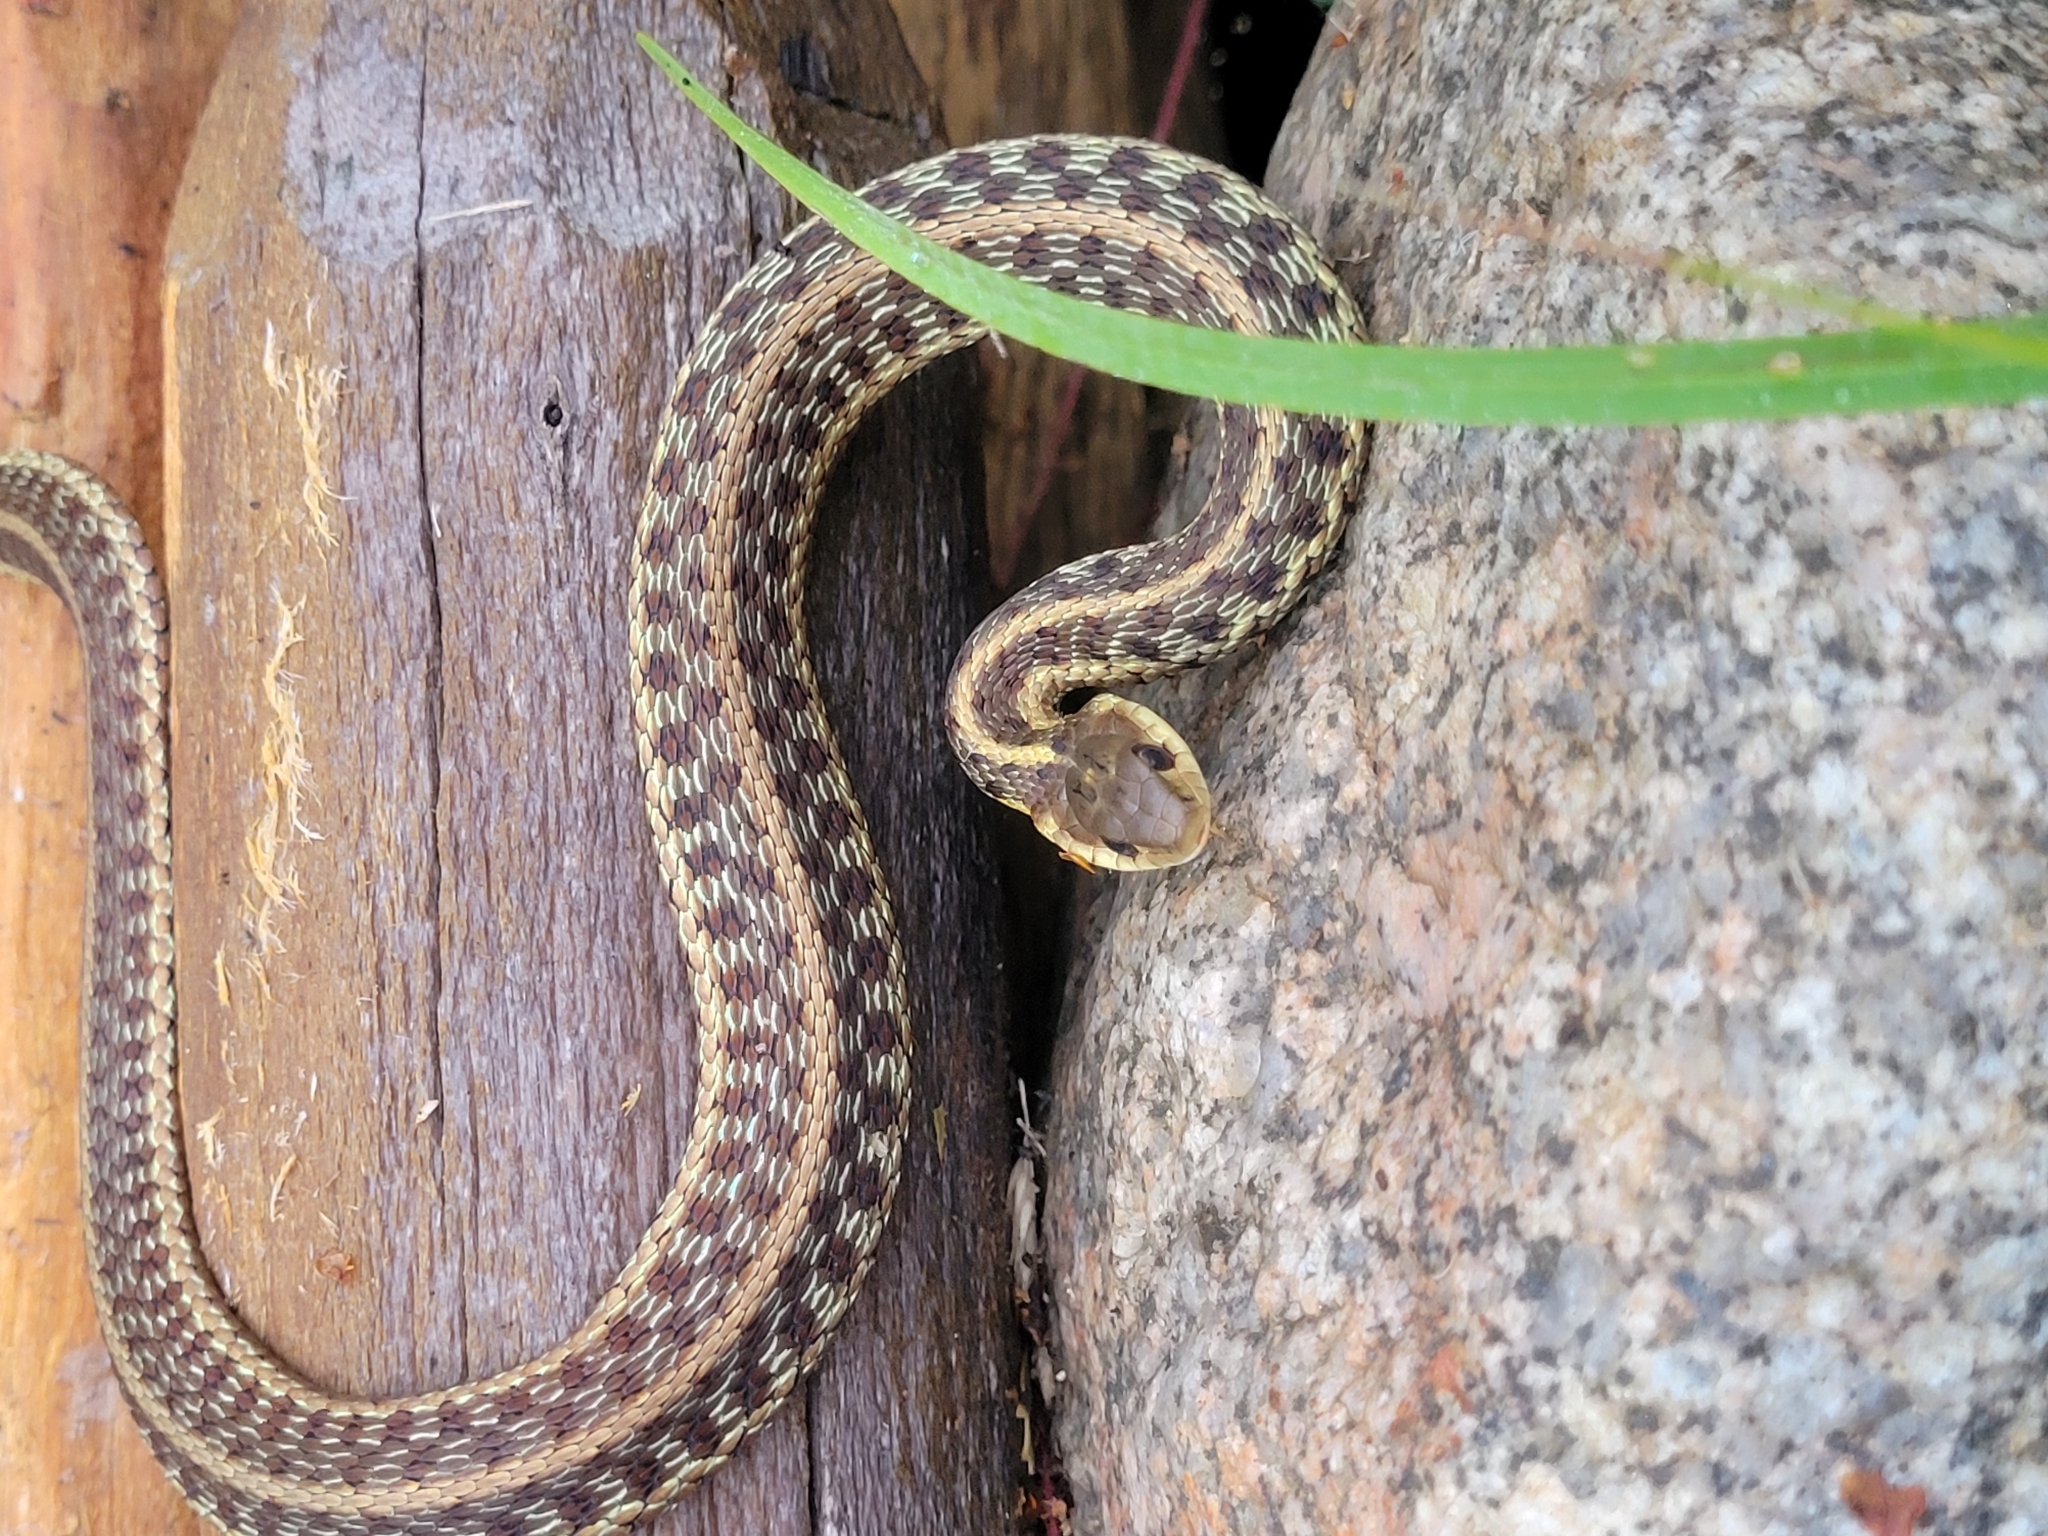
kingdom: Animalia
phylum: Chordata
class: Squamata
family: Colubridae
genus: Thamnophis
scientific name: Thamnophis sirtalis
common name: Common garter snake
